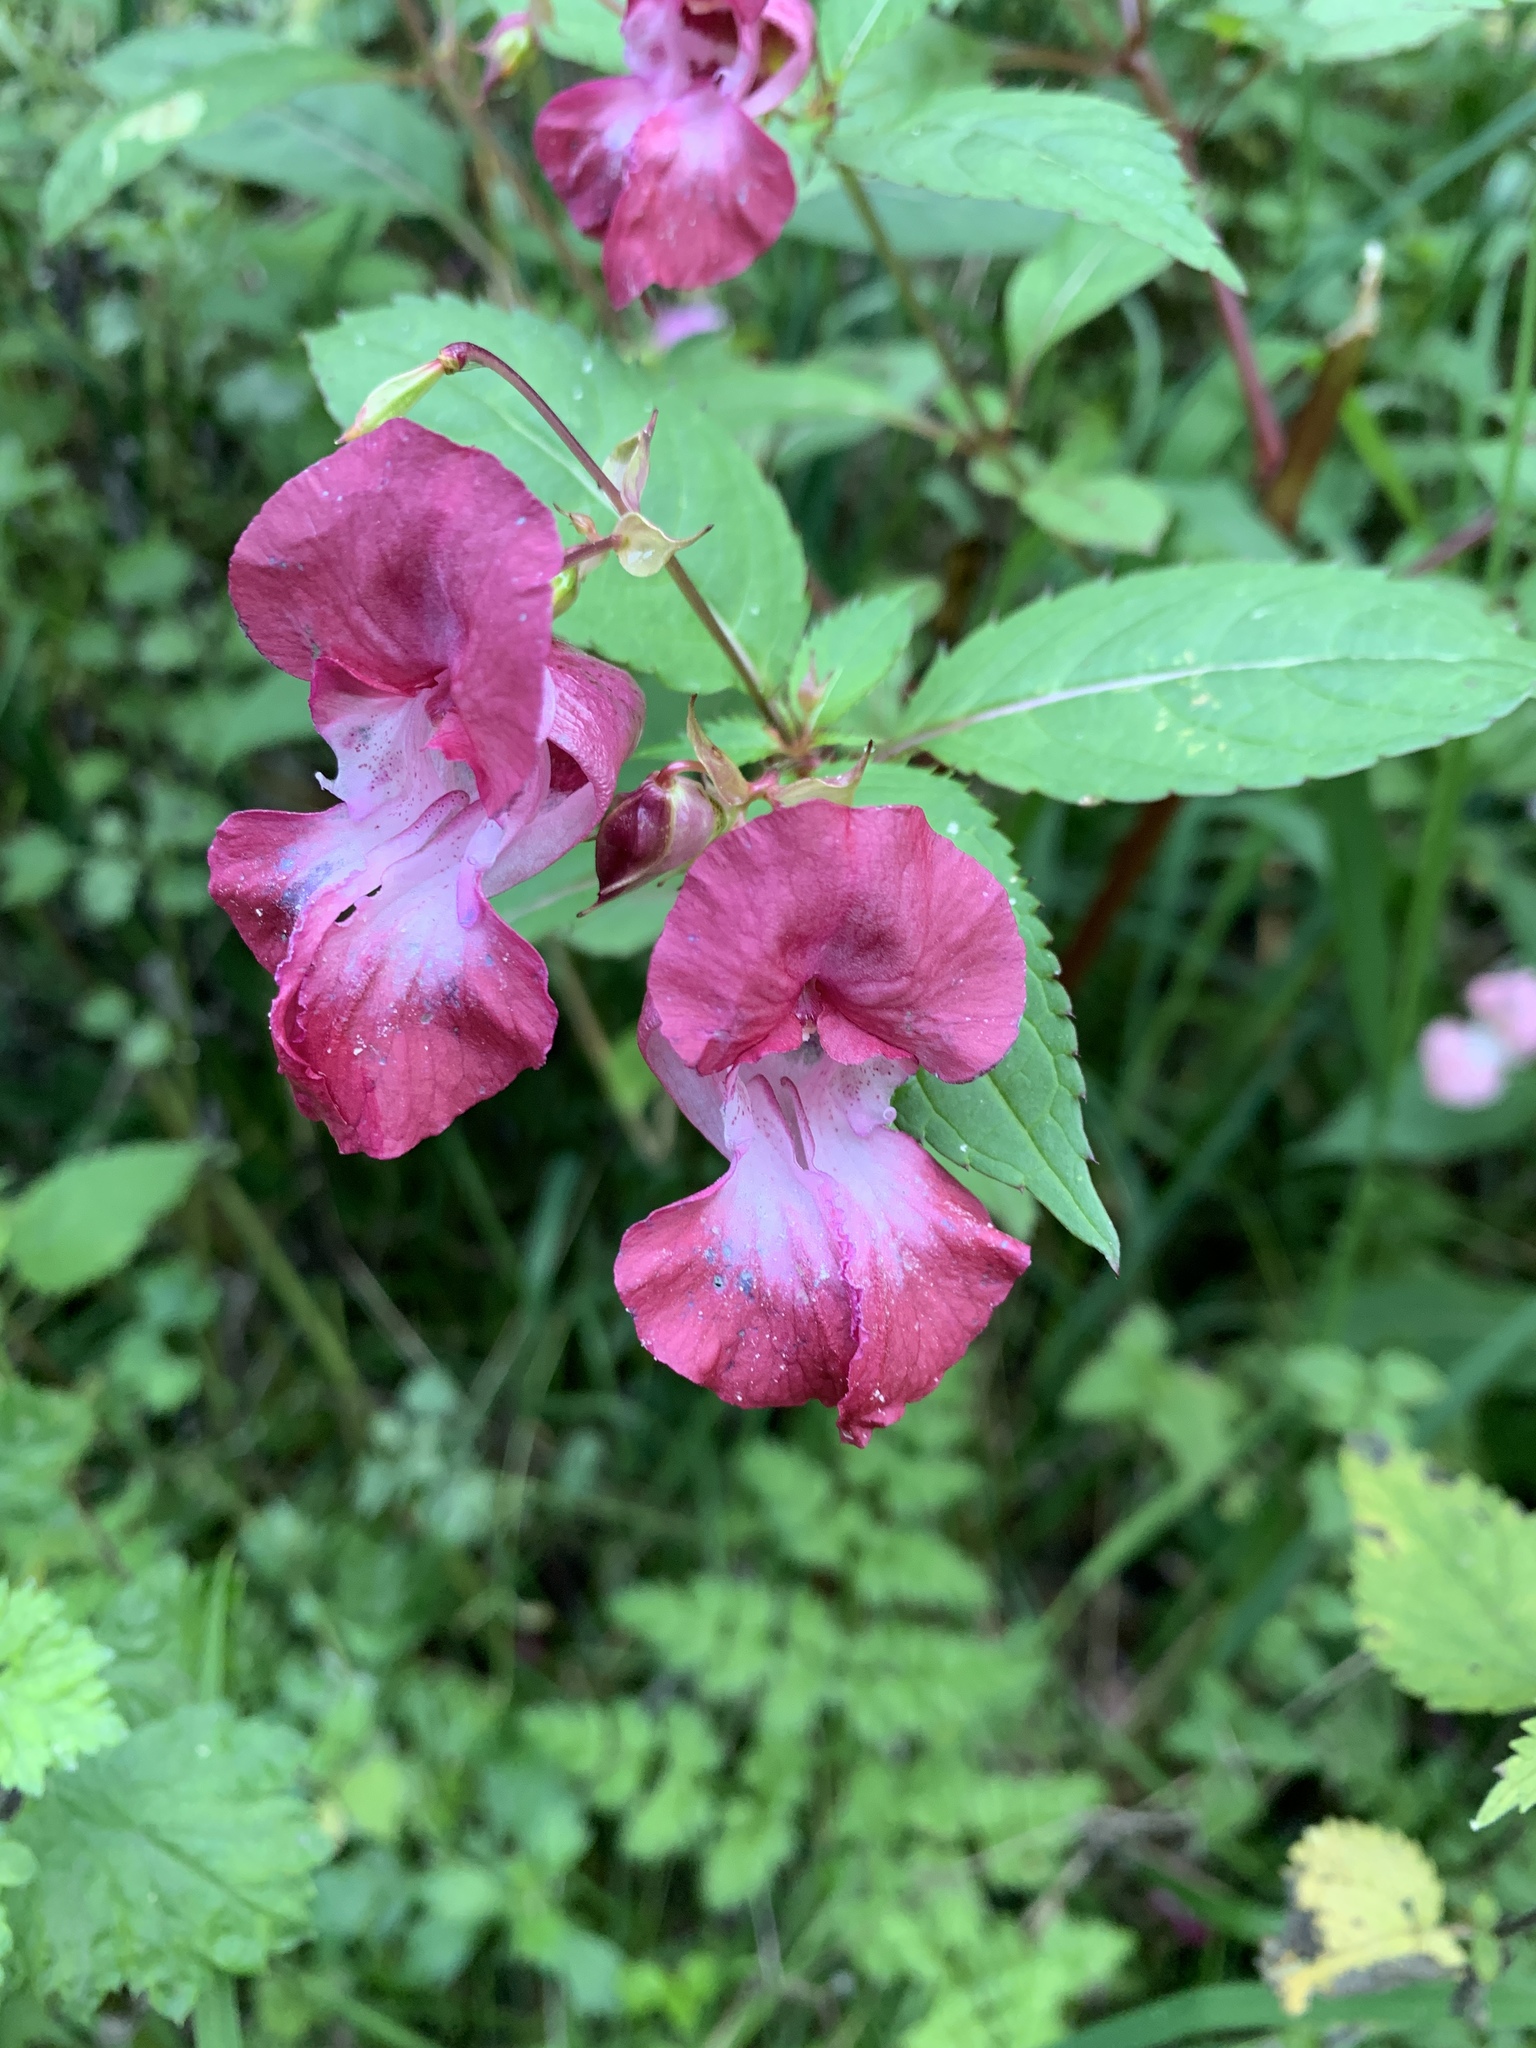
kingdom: Plantae
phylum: Tracheophyta
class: Magnoliopsida
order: Ericales
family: Balsaminaceae
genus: Impatiens
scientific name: Impatiens glandulifera
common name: Himalayan balsam
